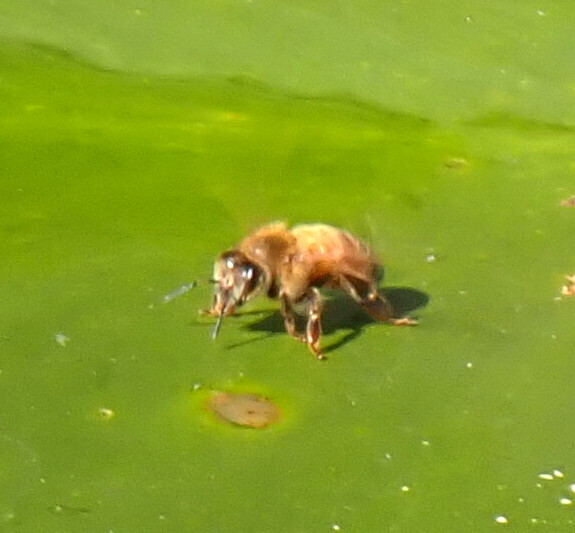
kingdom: Animalia
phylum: Arthropoda
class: Insecta
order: Hymenoptera
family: Apidae
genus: Apis
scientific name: Apis mellifera
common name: Honey bee
